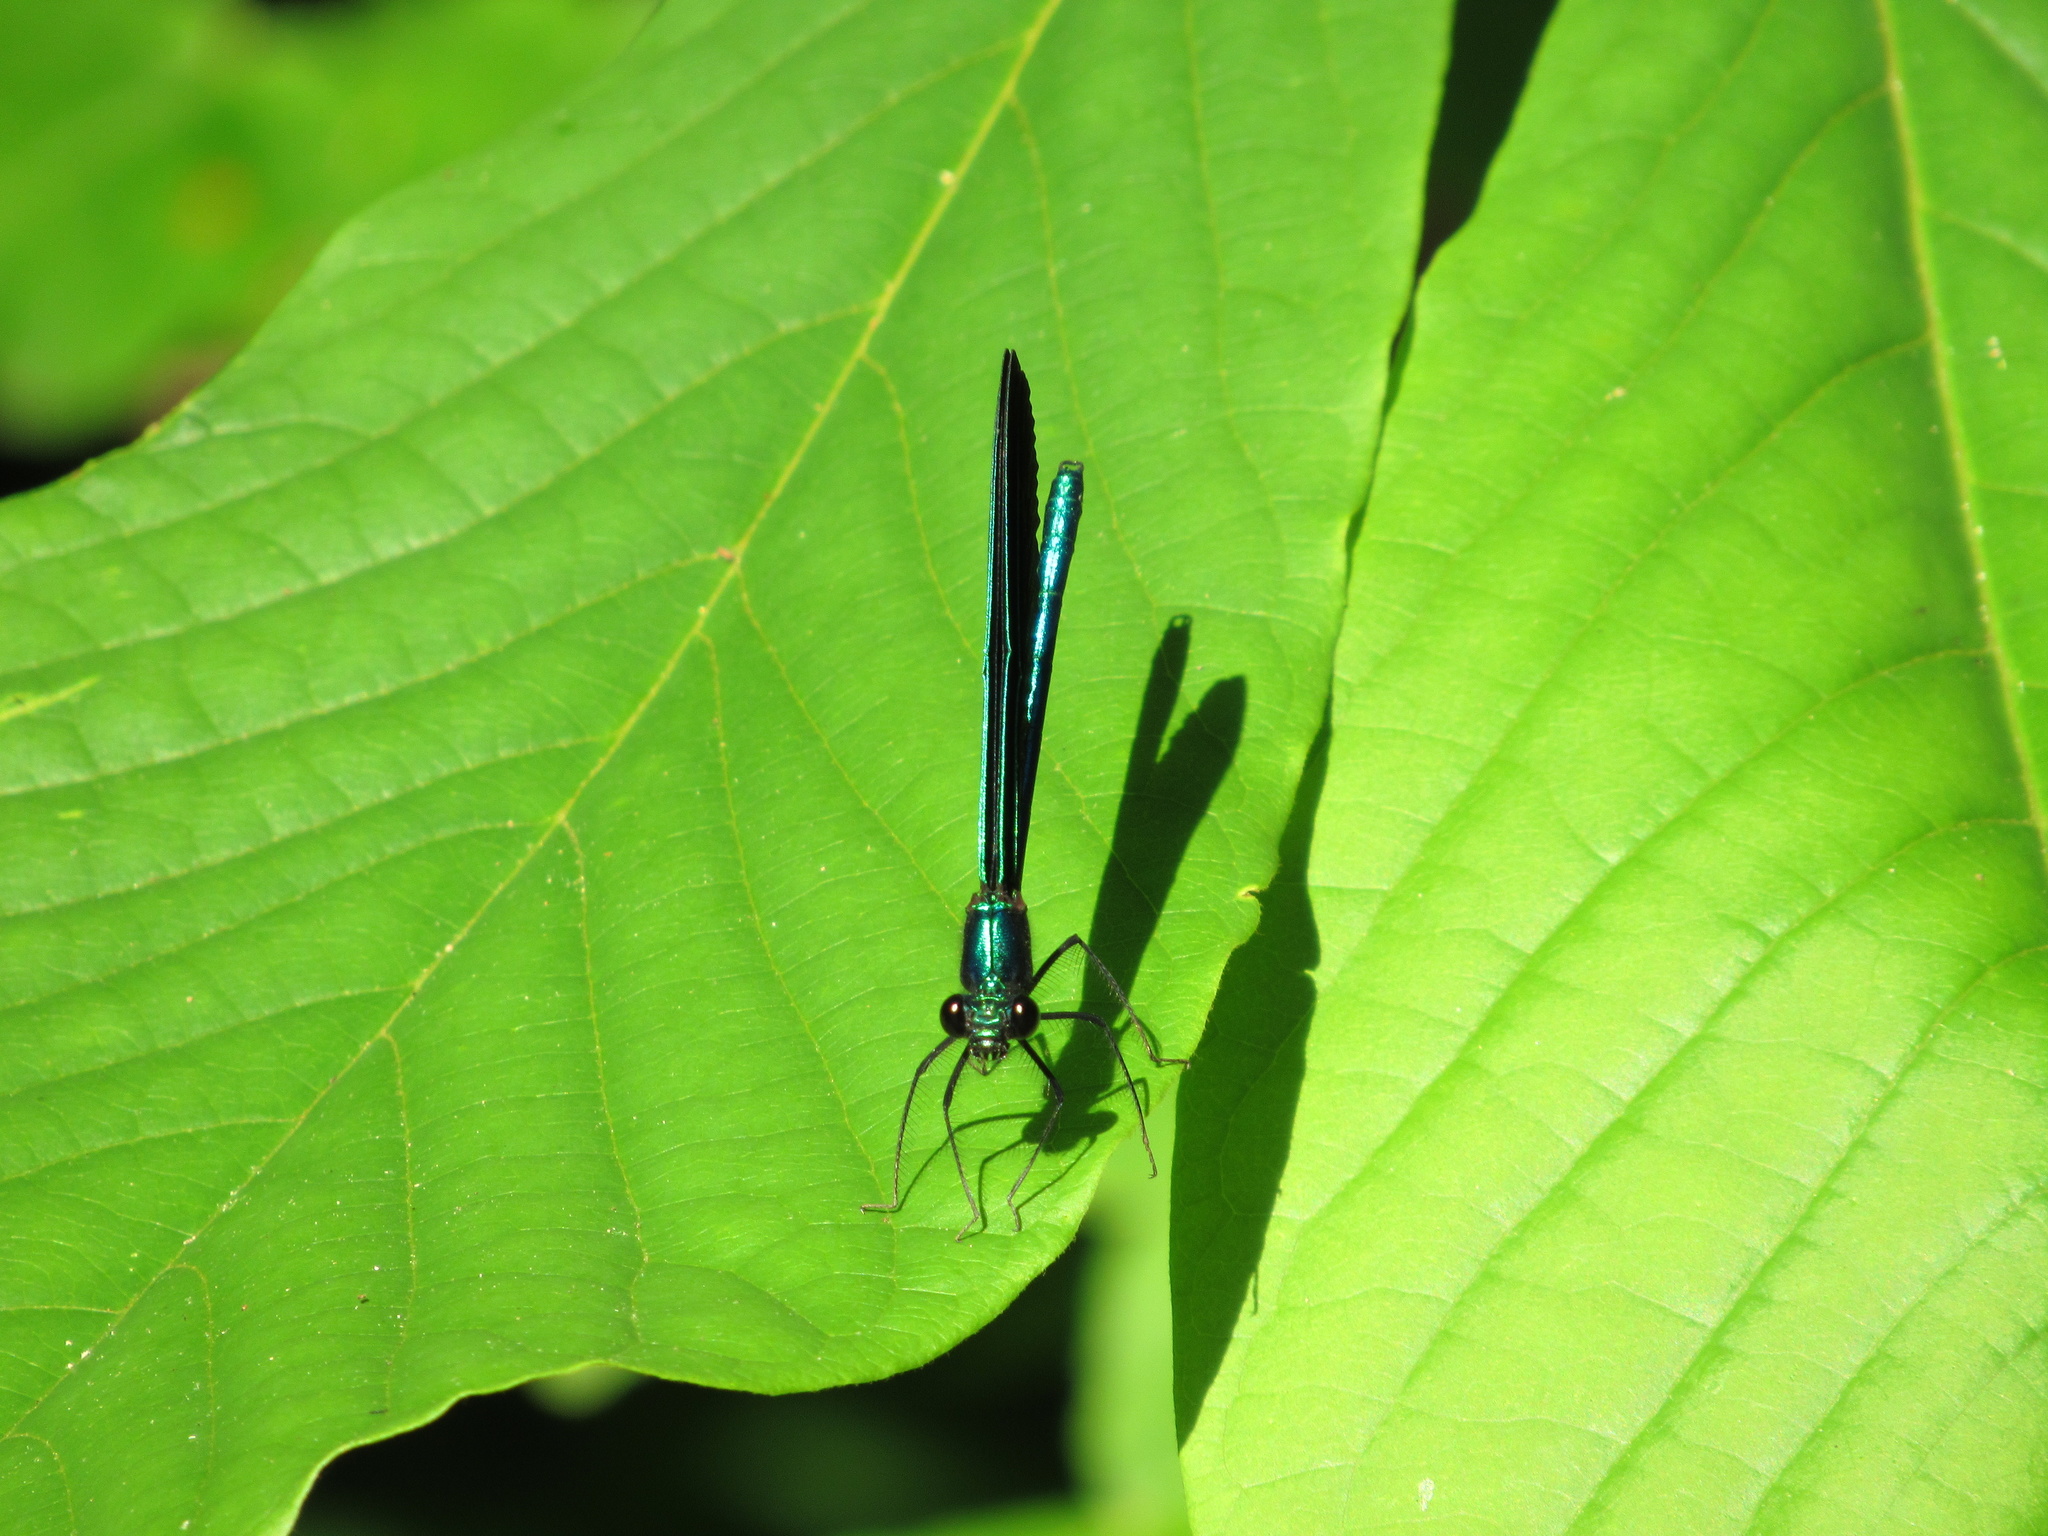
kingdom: Animalia
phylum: Arthropoda
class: Insecta
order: Odonata
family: Calopterygidae
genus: Calopteryx
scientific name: Calopteryx maculata
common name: Ebony jewelwing
